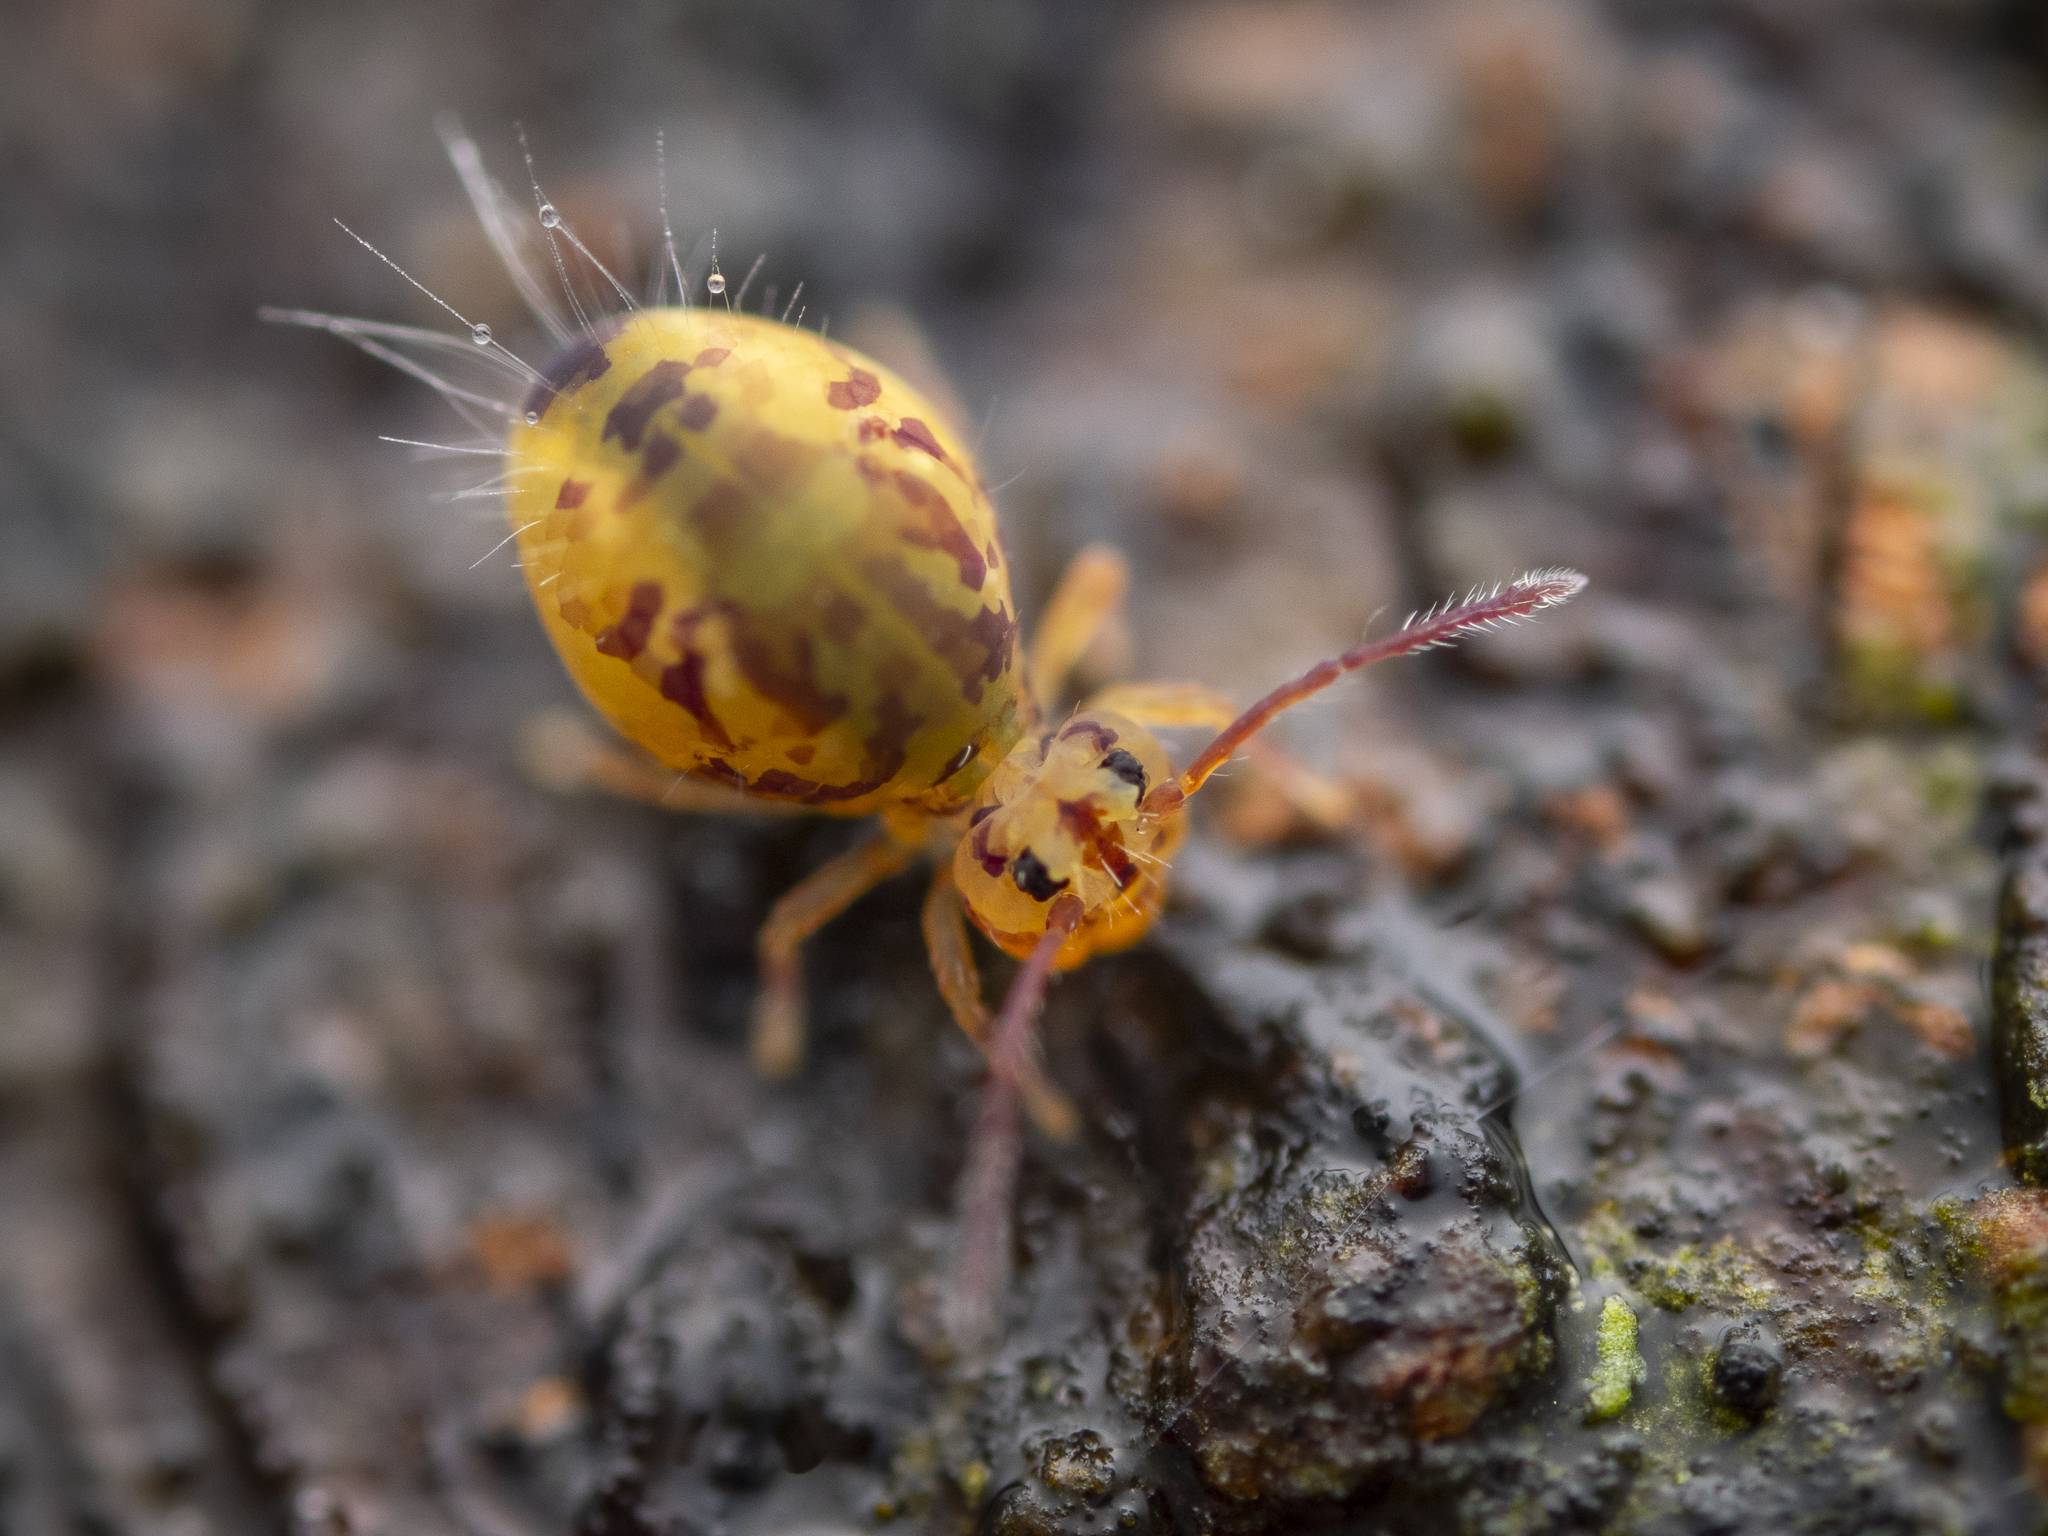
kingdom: Animalia
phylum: Arthropoda
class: Collembola
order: Symphypleona
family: Dicyrtomidae
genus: Dicyrtomina
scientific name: Dicyrtomina ornata
